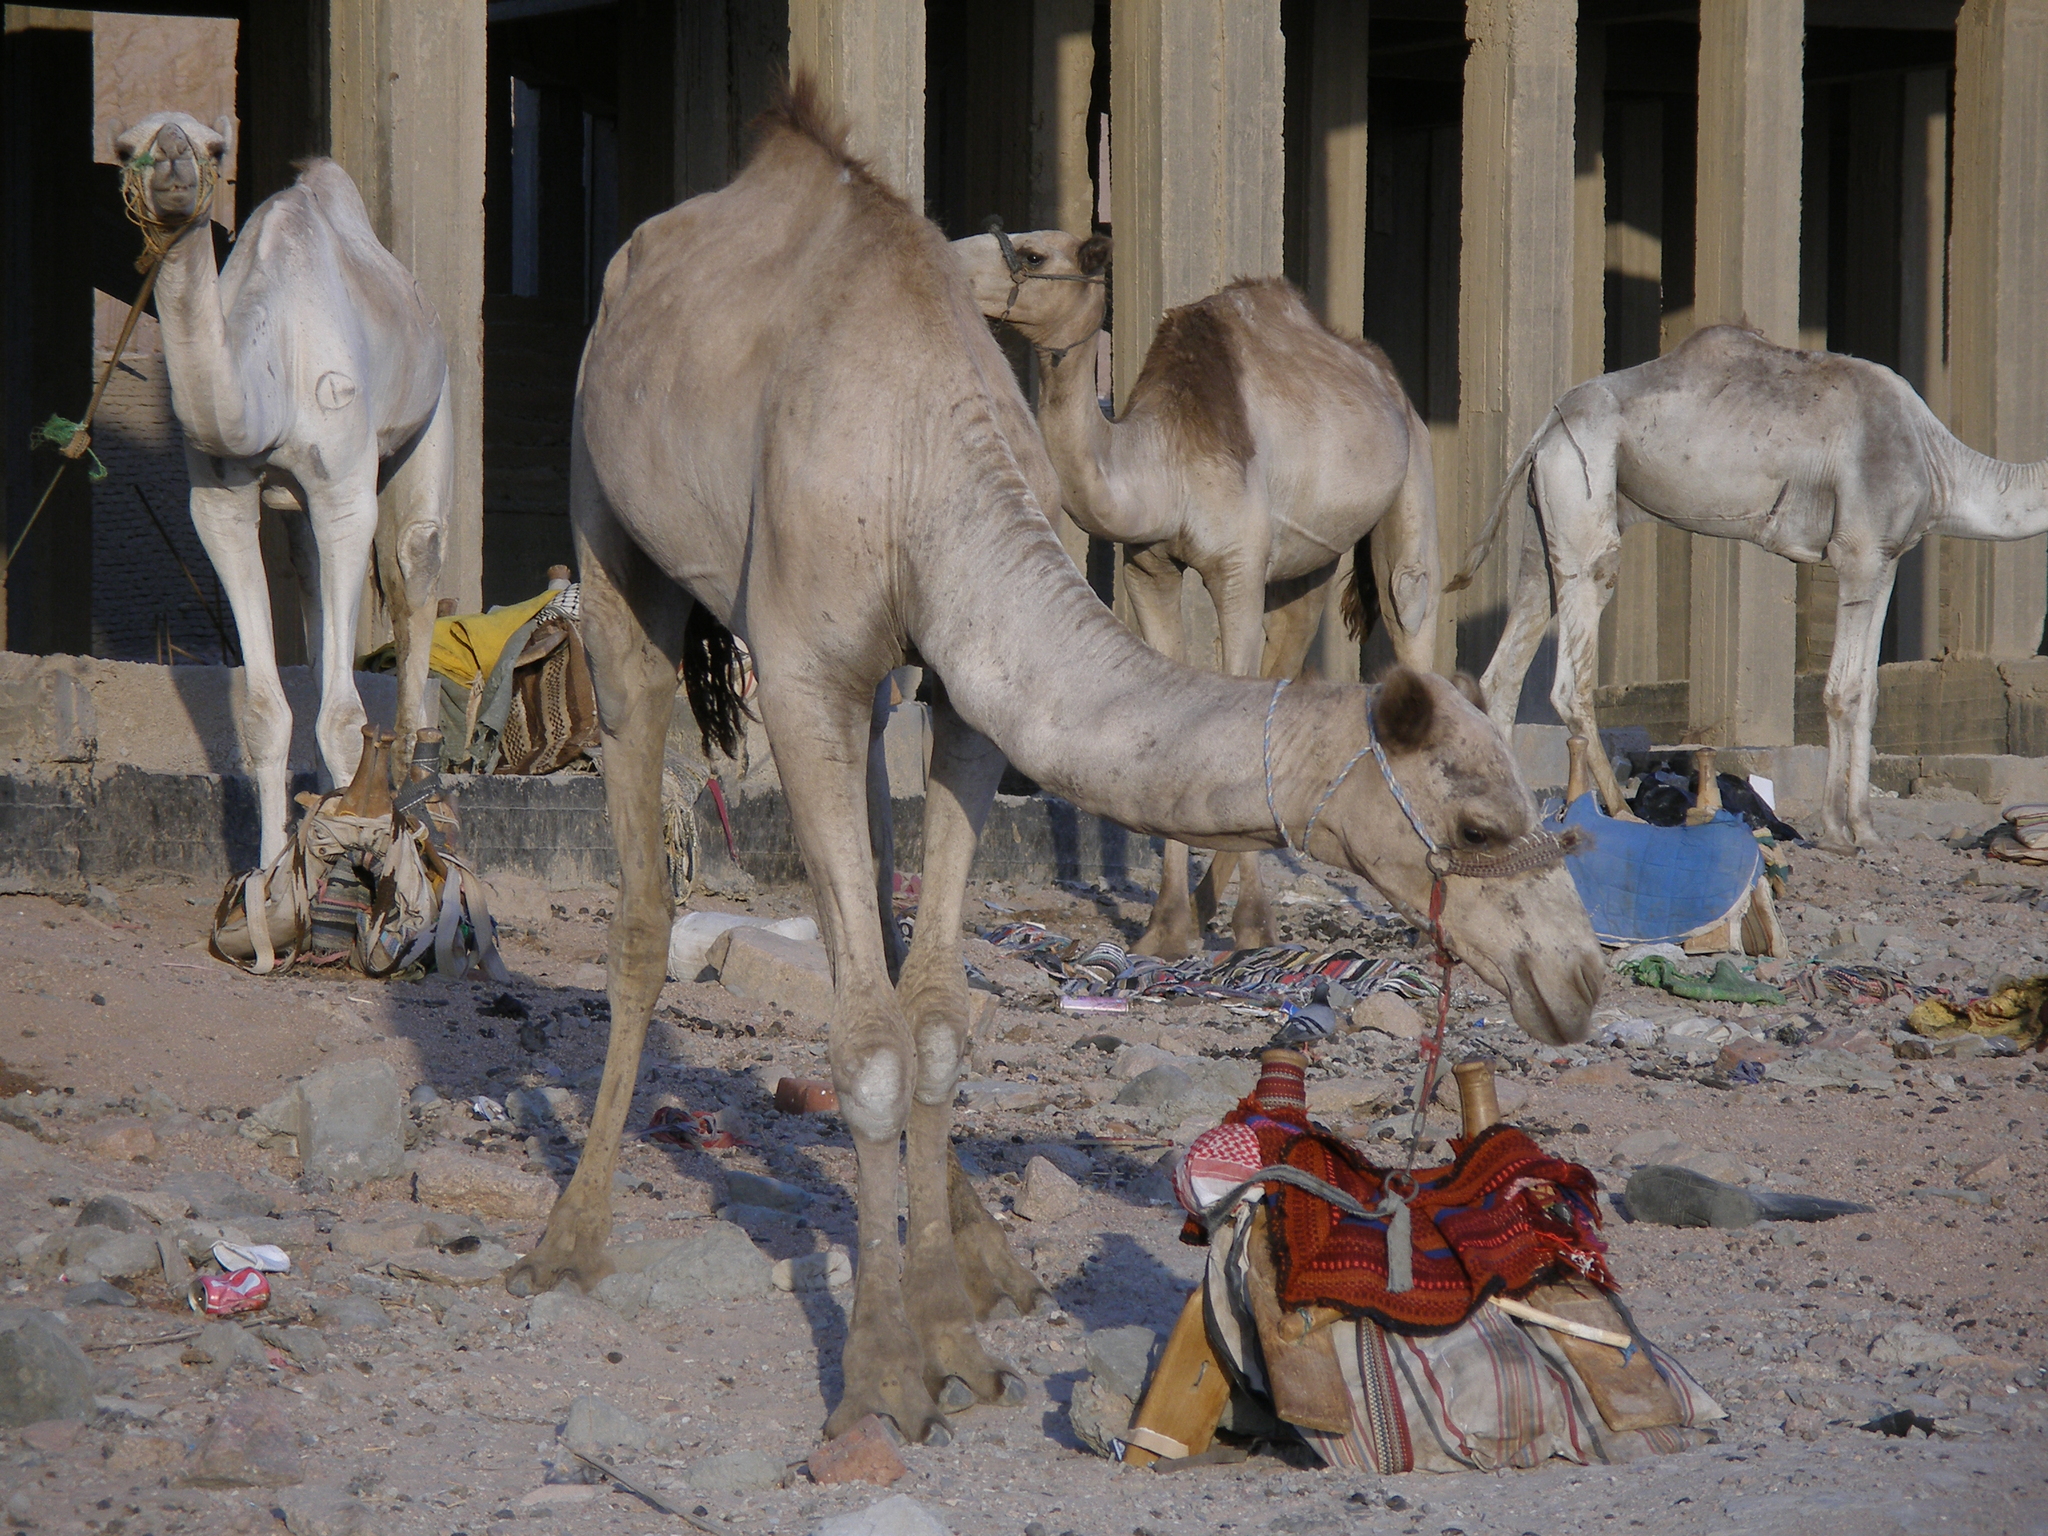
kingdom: Animalia
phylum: Chordata
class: Mammalia
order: Artiodactyla
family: Camelidae
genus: Camelus
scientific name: Camelus dromedarius
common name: One-humped camel
